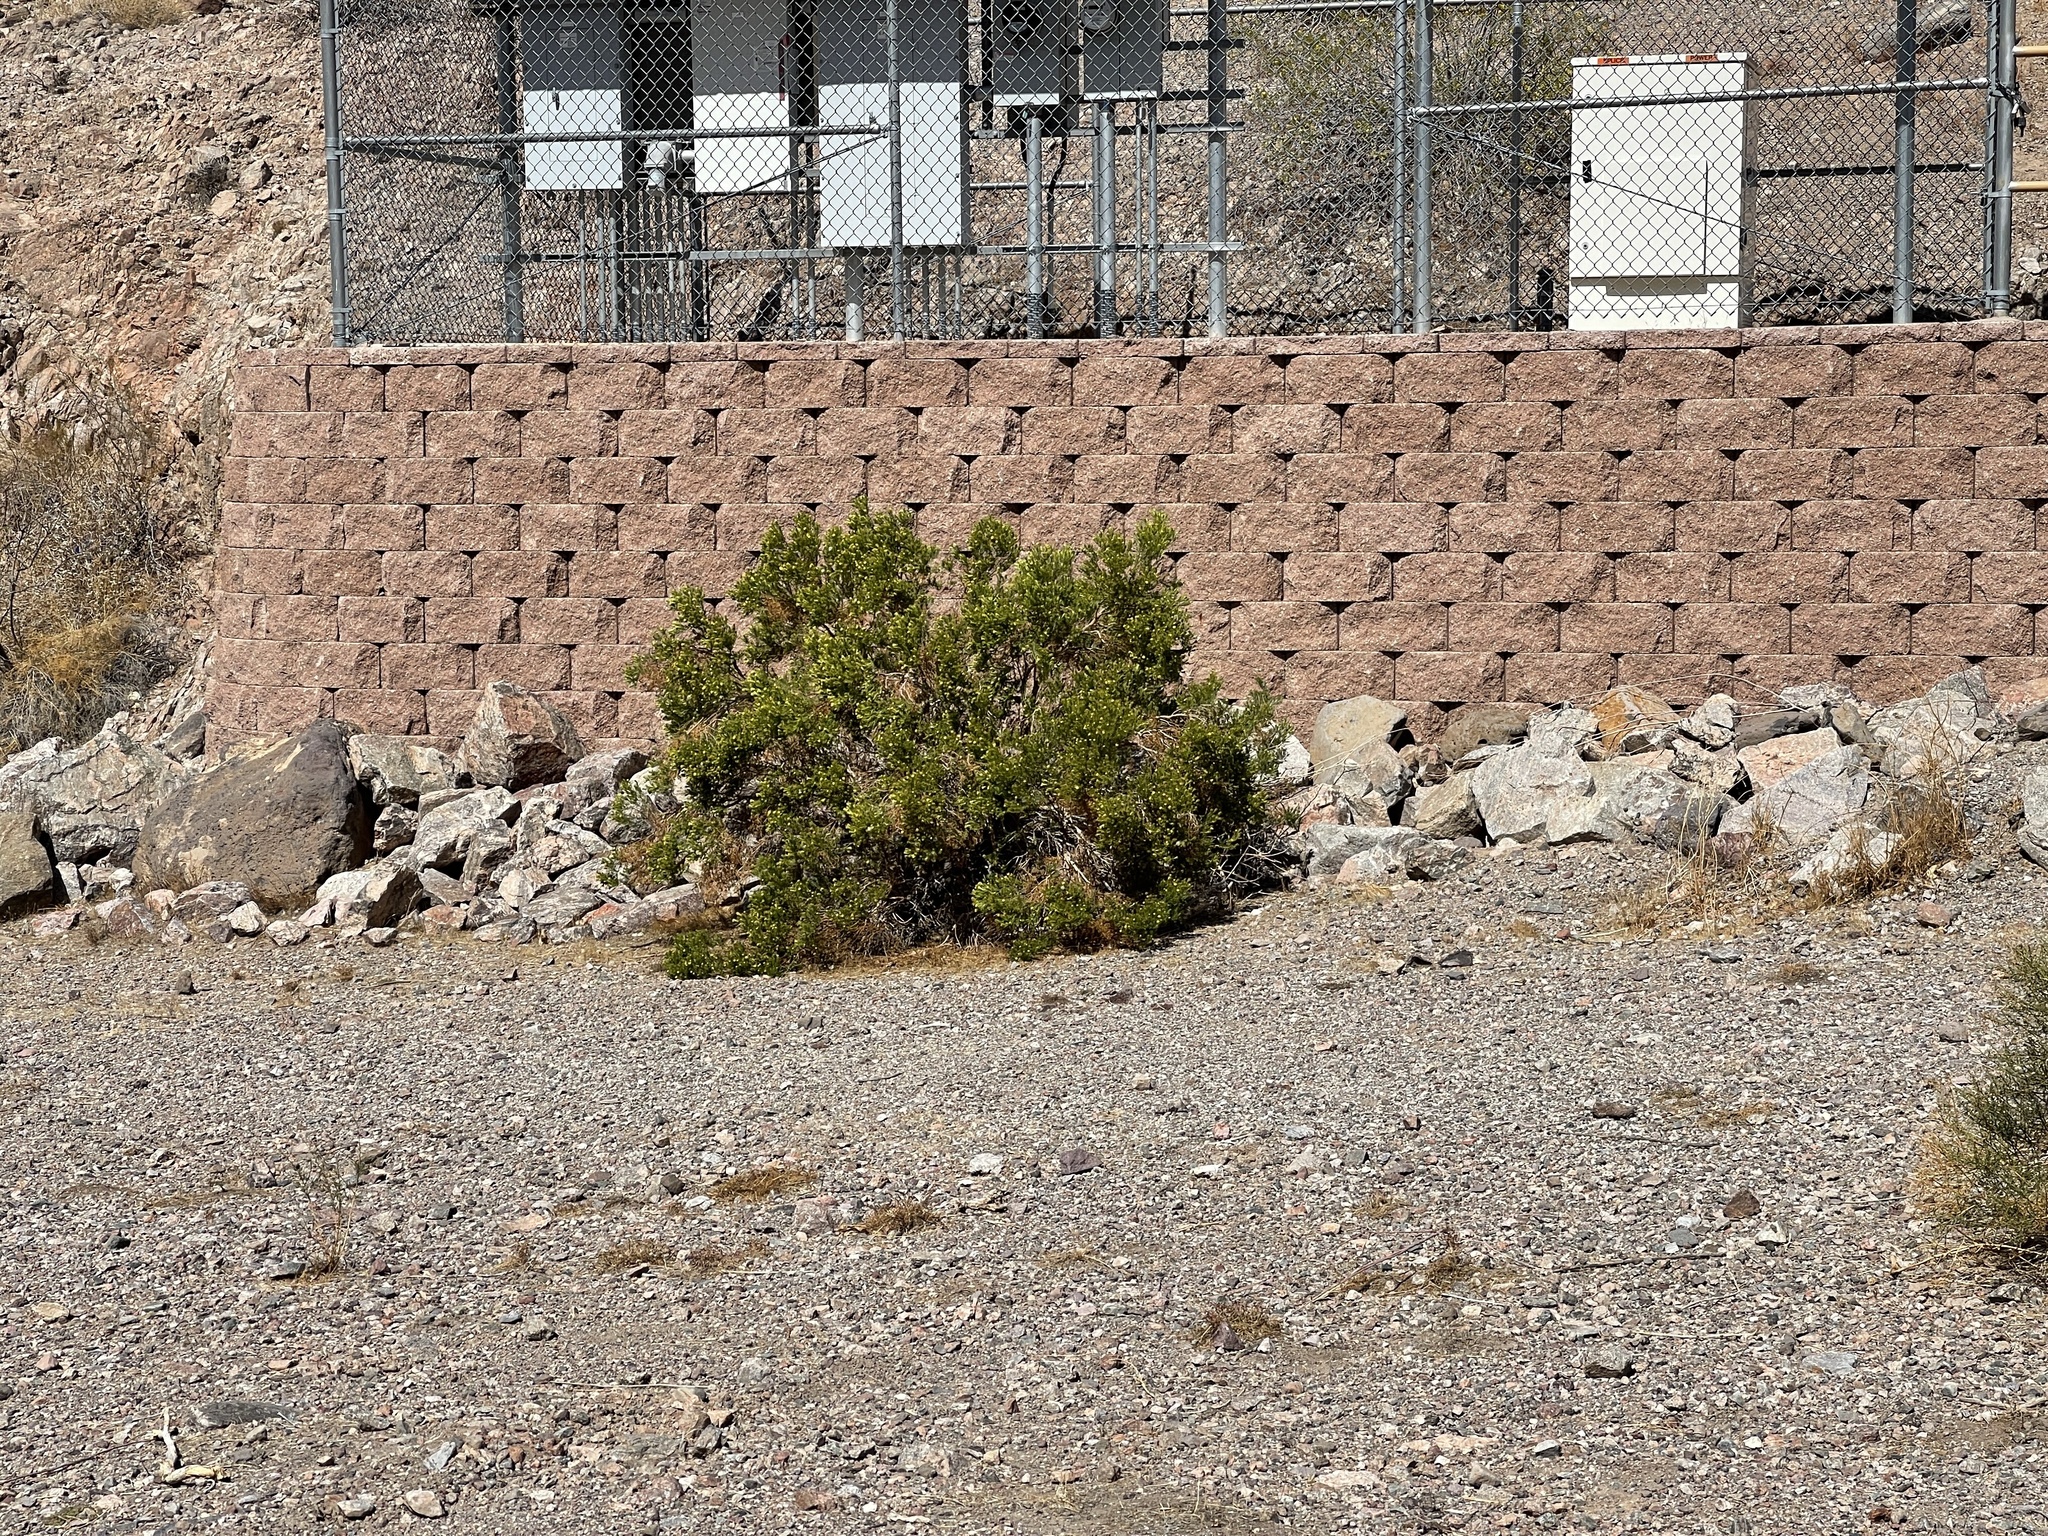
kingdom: Plantae
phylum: Tracheophyta
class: Magnoliopsida
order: Zygophyllales
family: Zygophyllaceae
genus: Larrea
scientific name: Larrea tridentata
